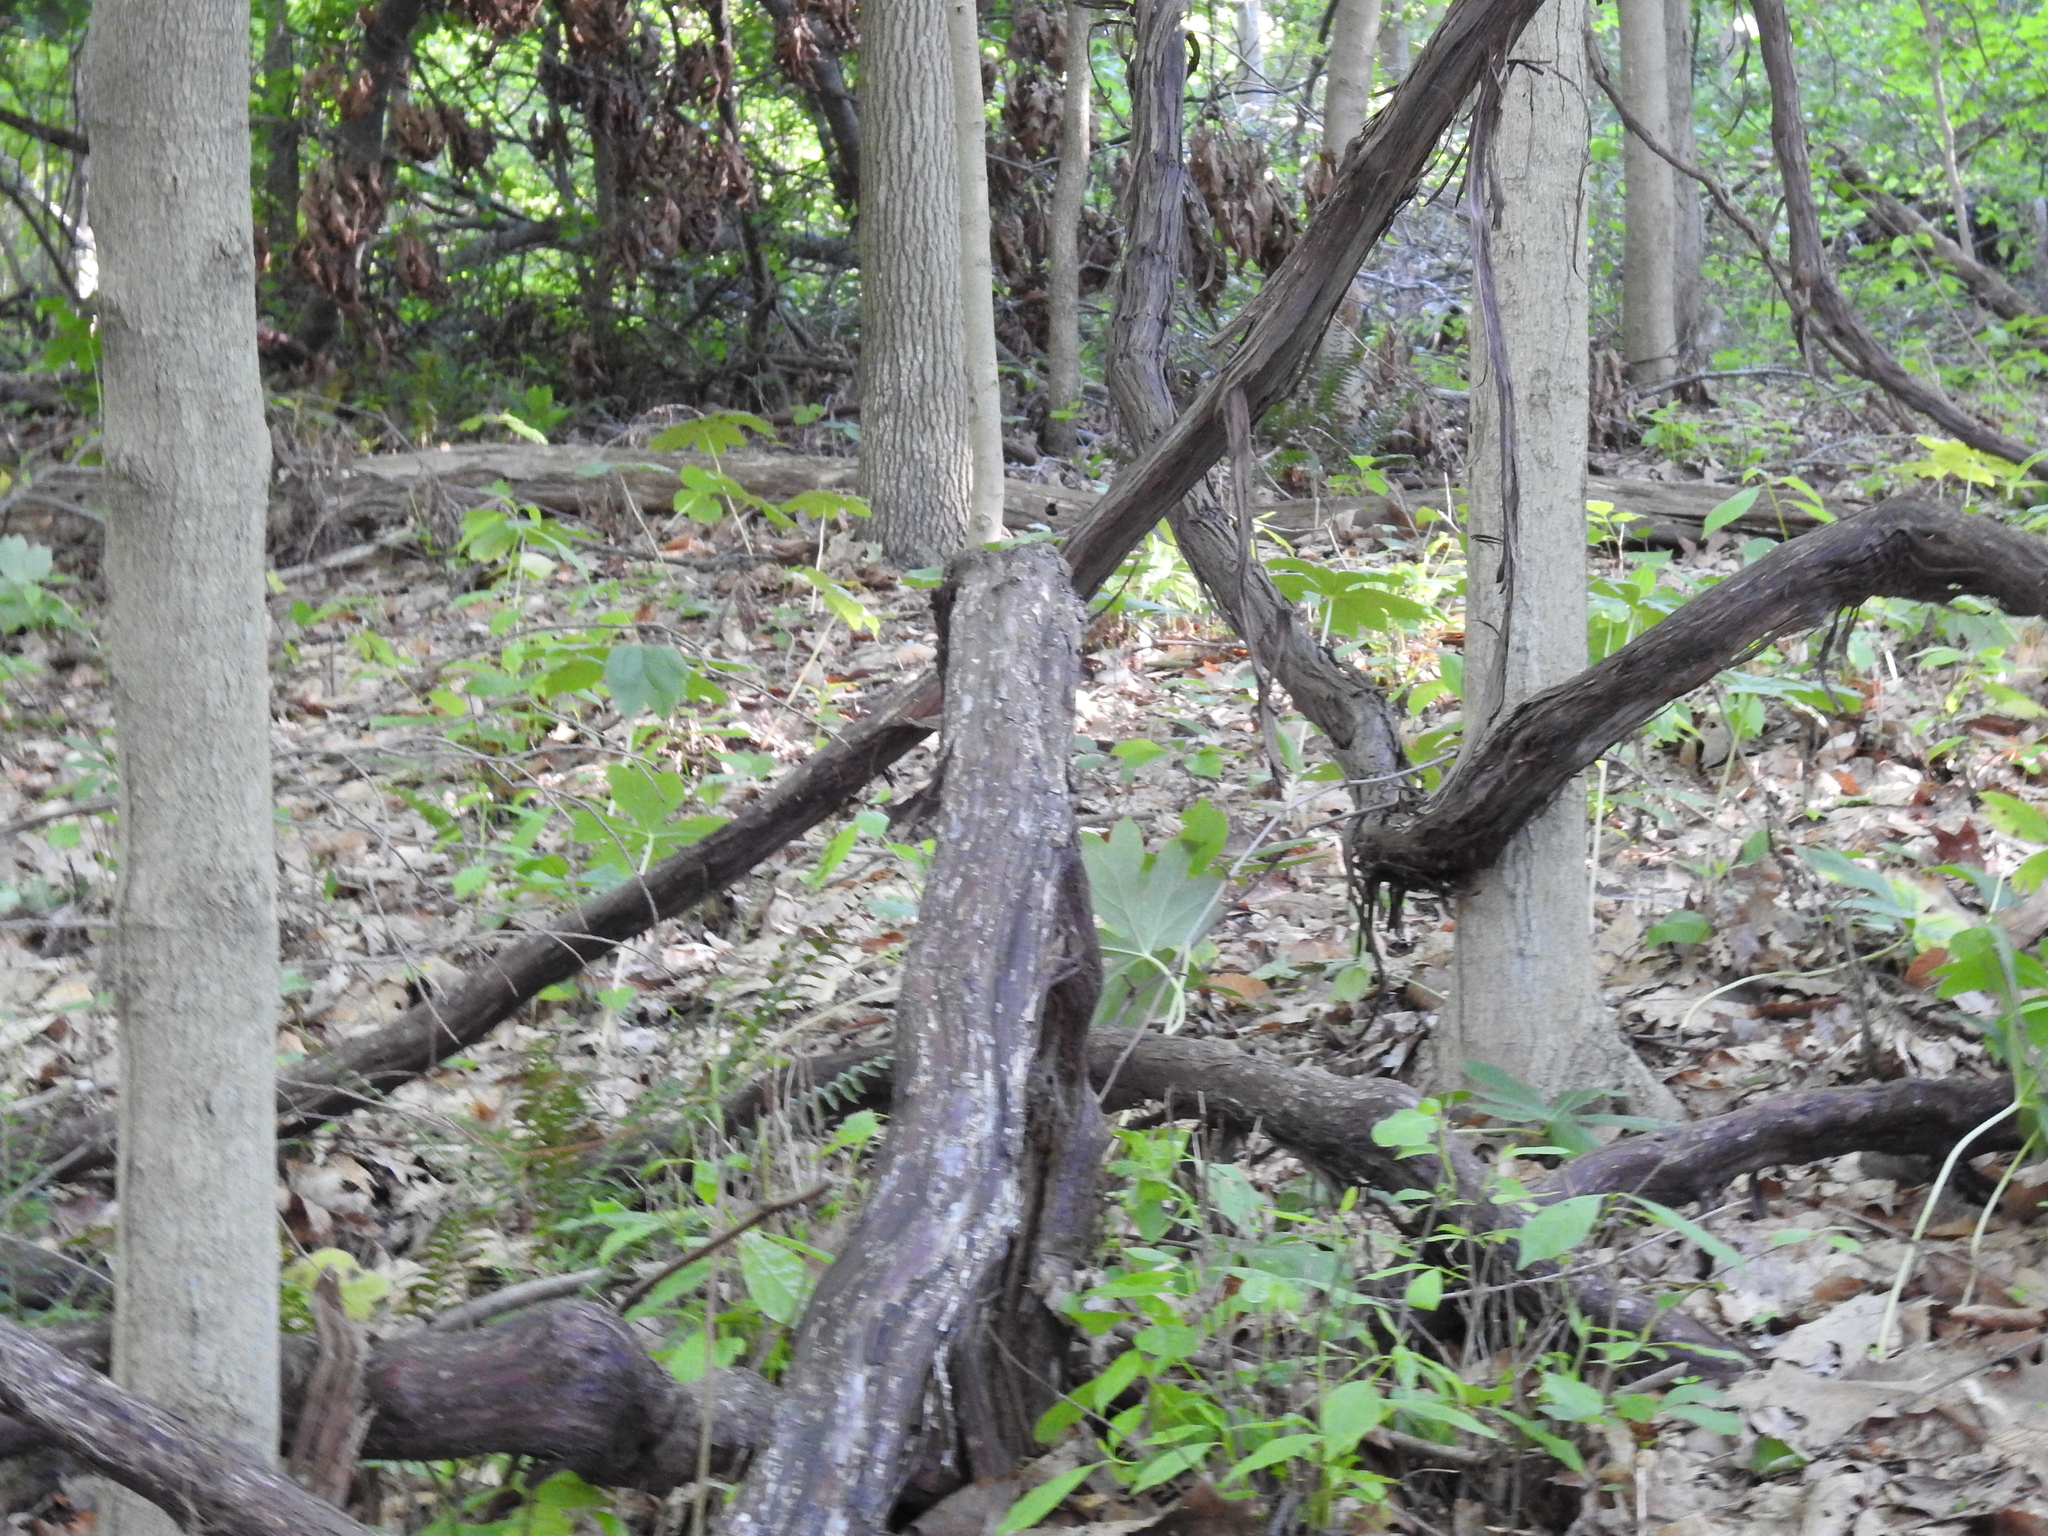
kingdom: Plantae
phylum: Tracheophyta
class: Magnoliopsida
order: Vitales
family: Vitaceae
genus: Vitis
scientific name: Vitis
